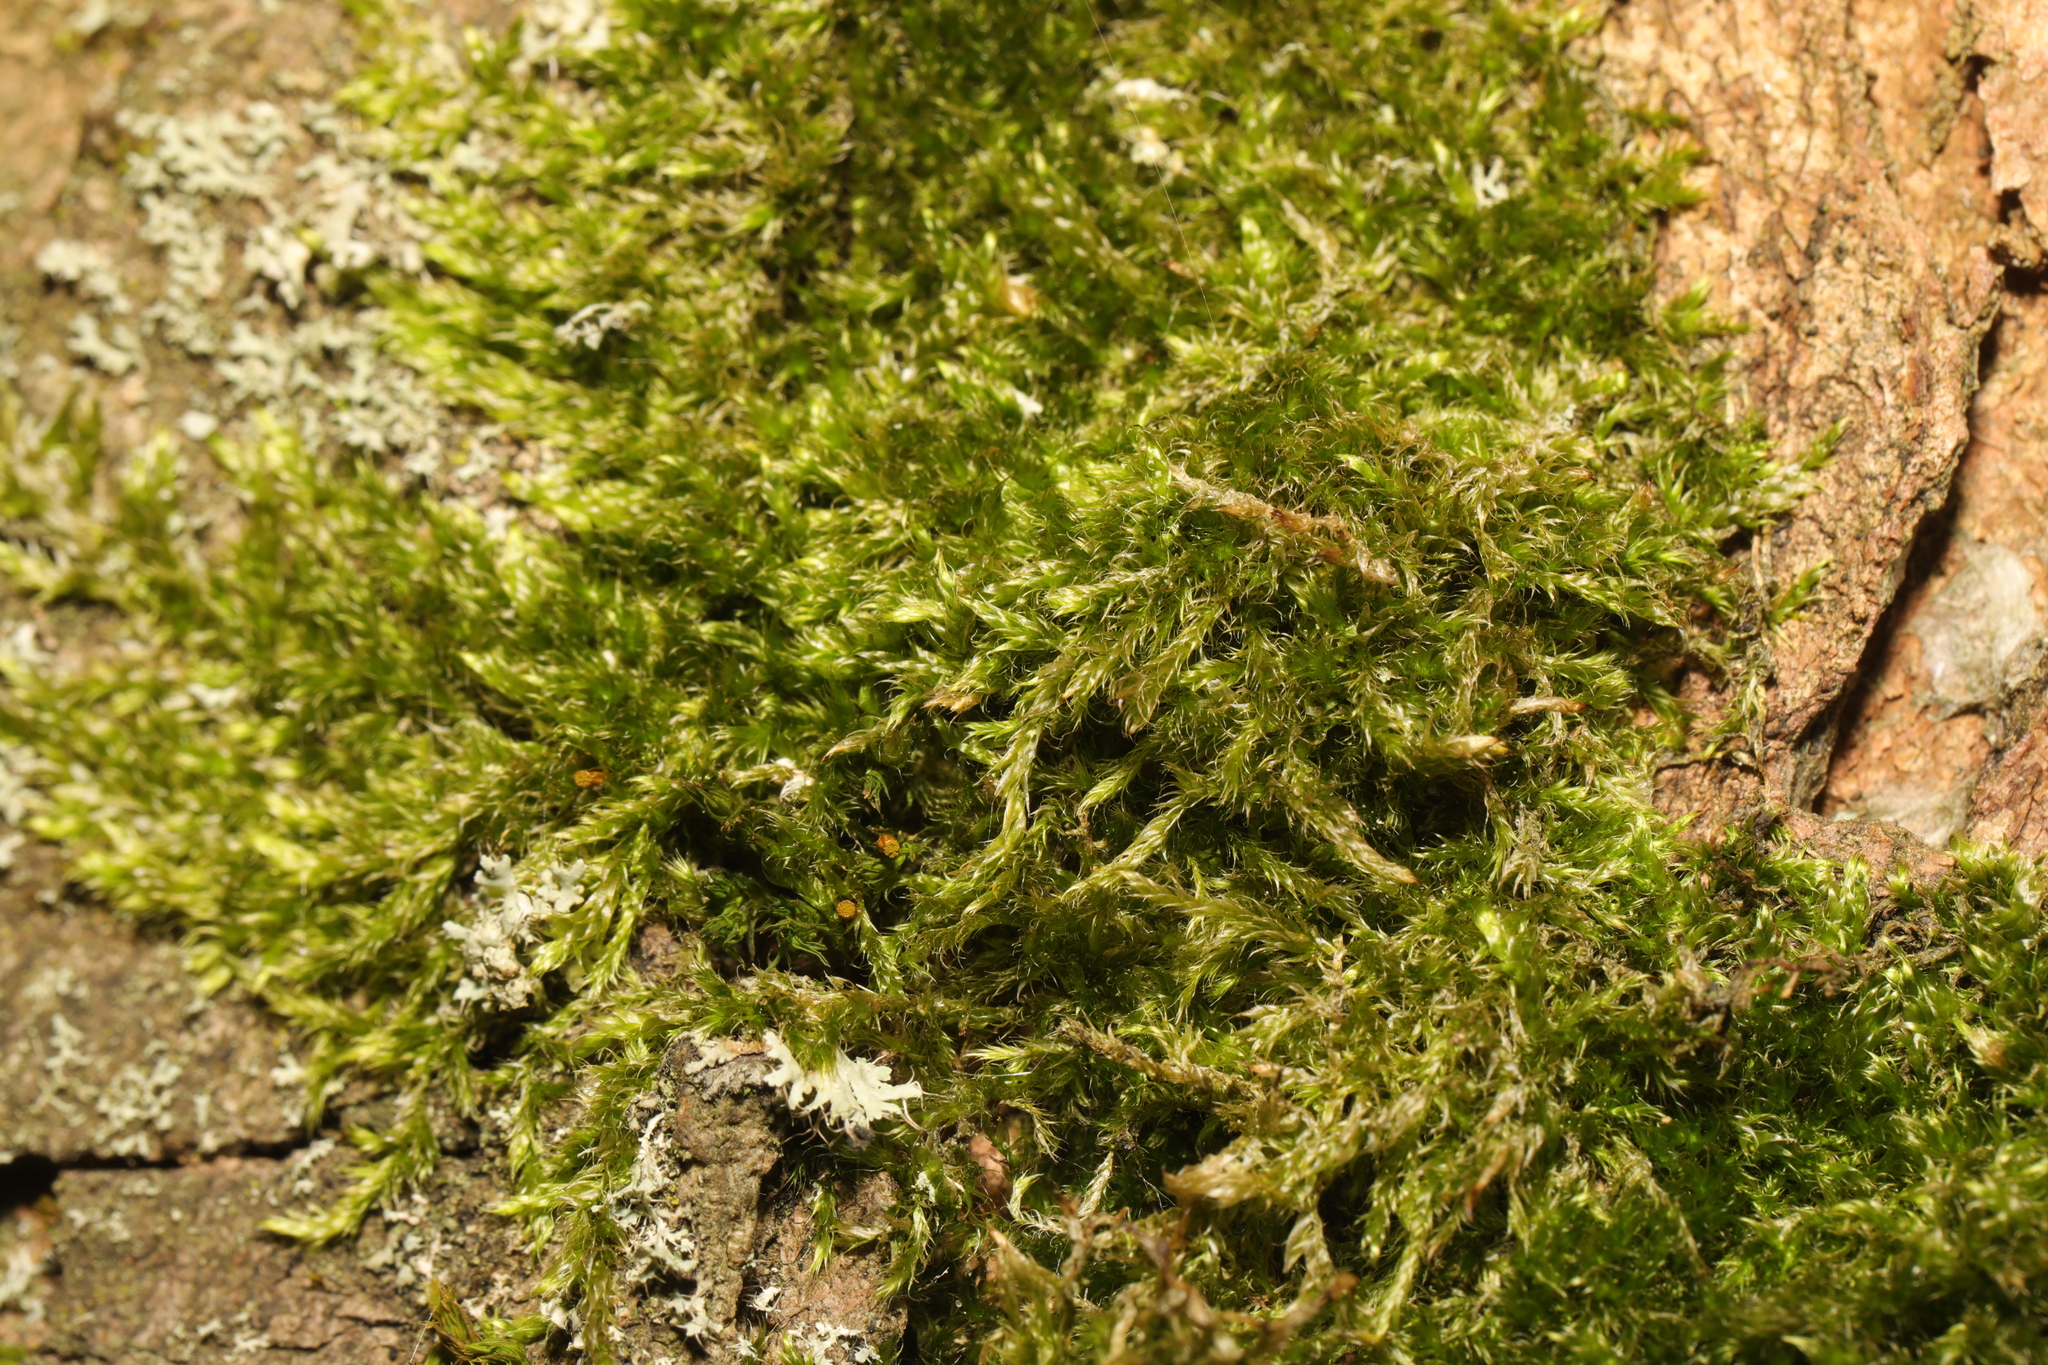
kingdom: Plantae
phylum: Bryophyta
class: Bryopsida
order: Hypnales
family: Hypnaceae
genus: Hypnum
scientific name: Hypnum cupressiforme
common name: Cypress-leaved plait-moss
